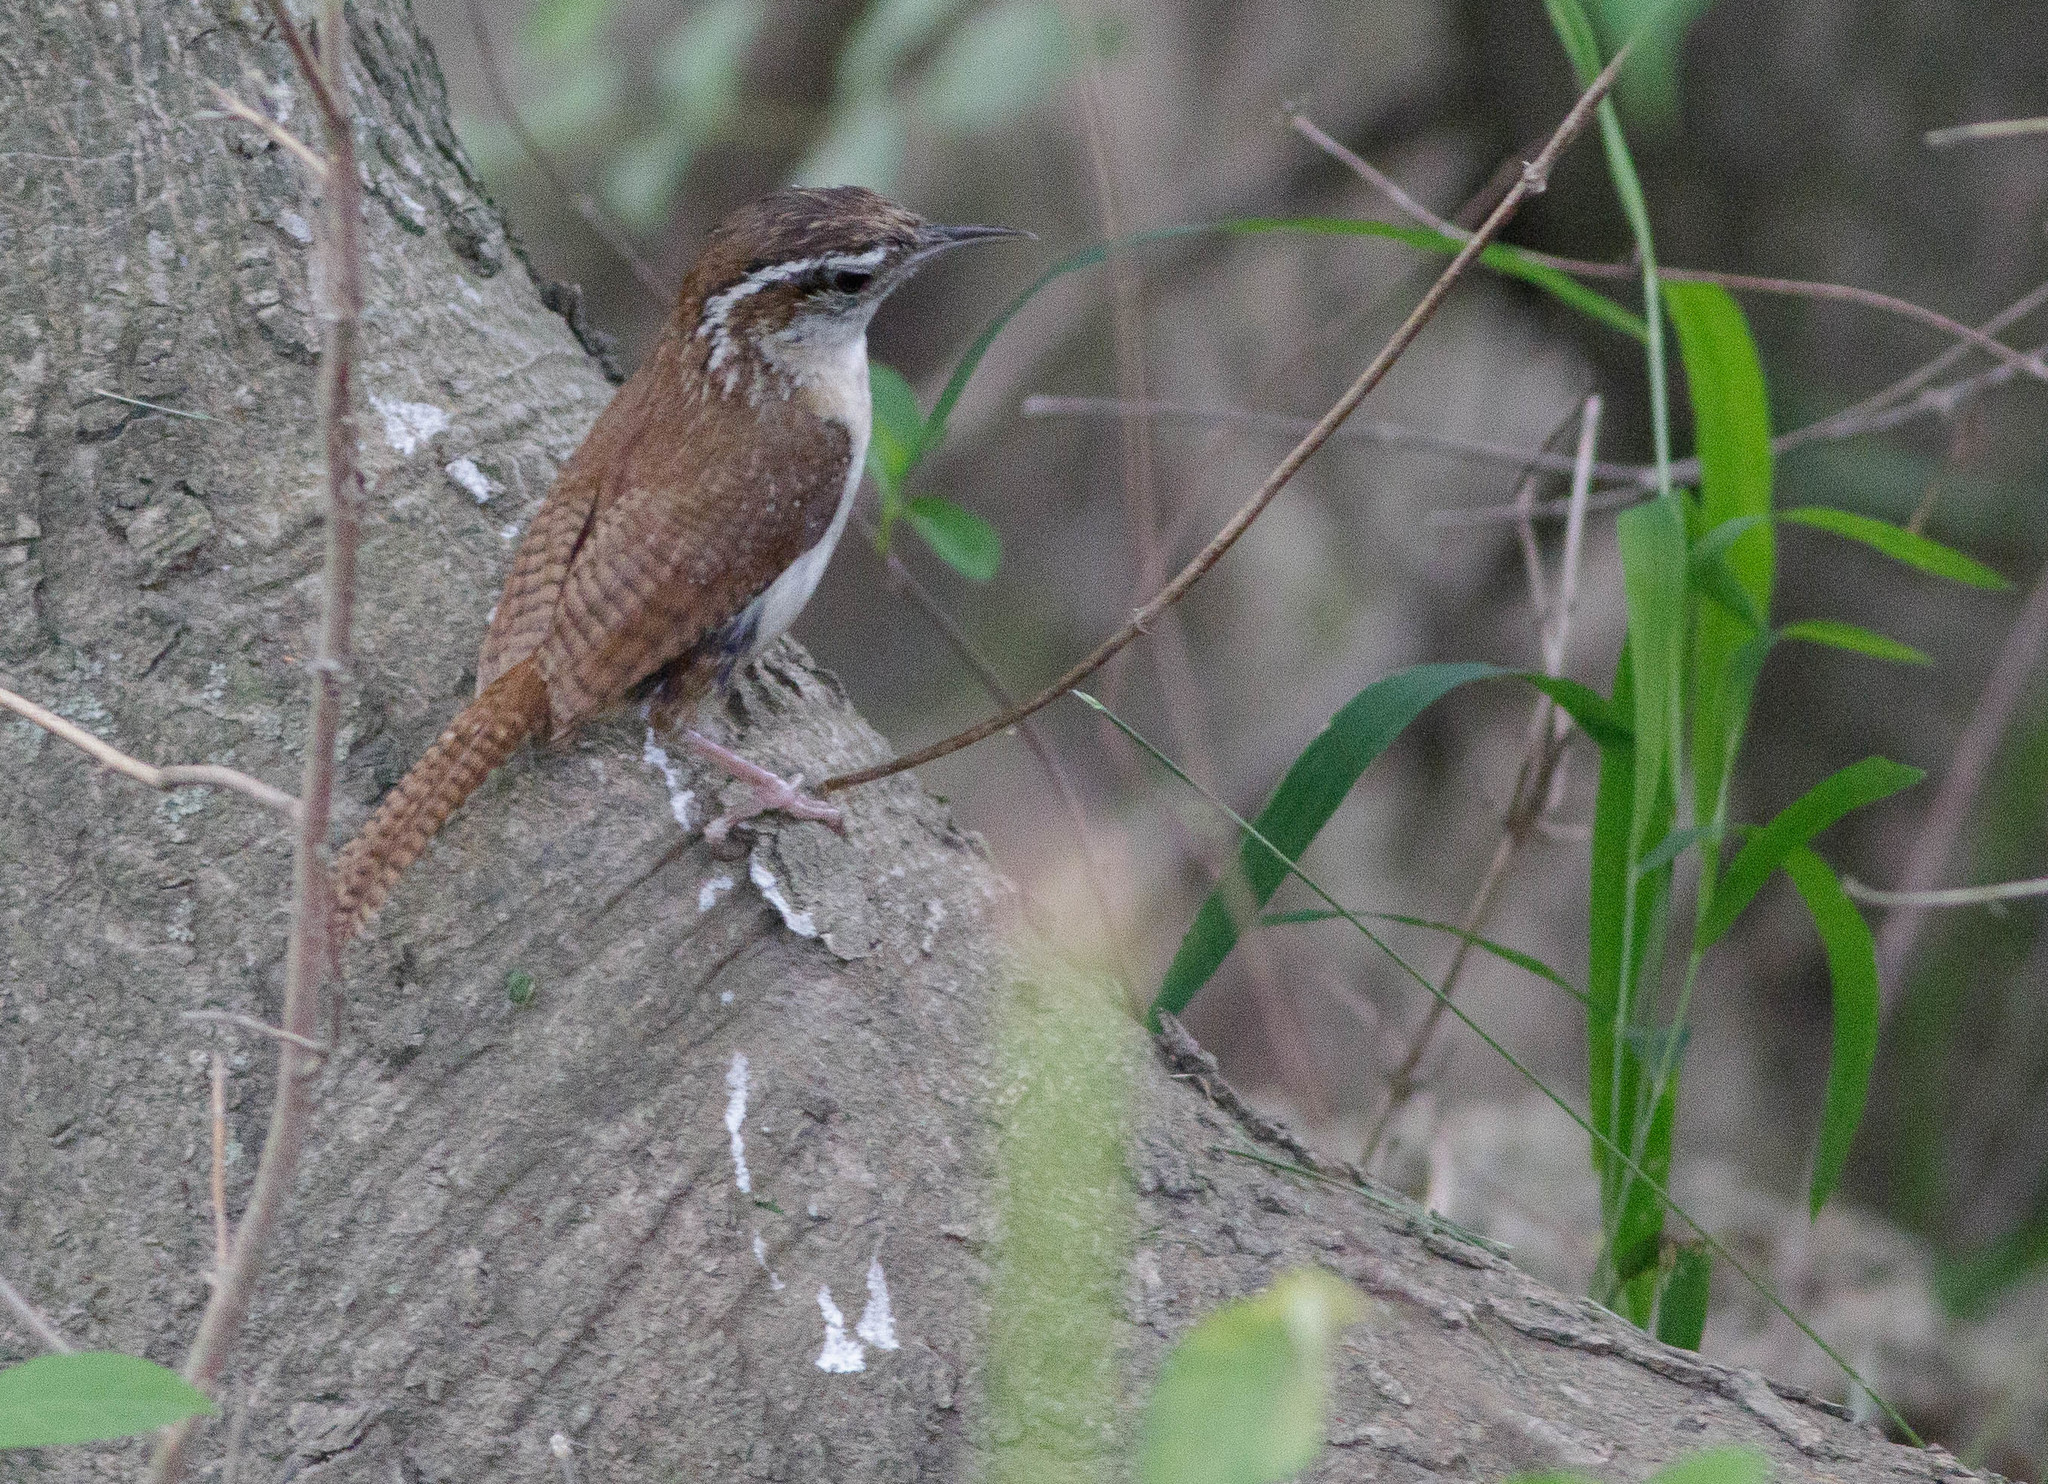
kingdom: Animalia
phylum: Chordata
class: Aves
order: Passeriformes
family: Troglodytidae
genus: Thryothorus
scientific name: Thryothorus ludovicianus
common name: Carolina wren
